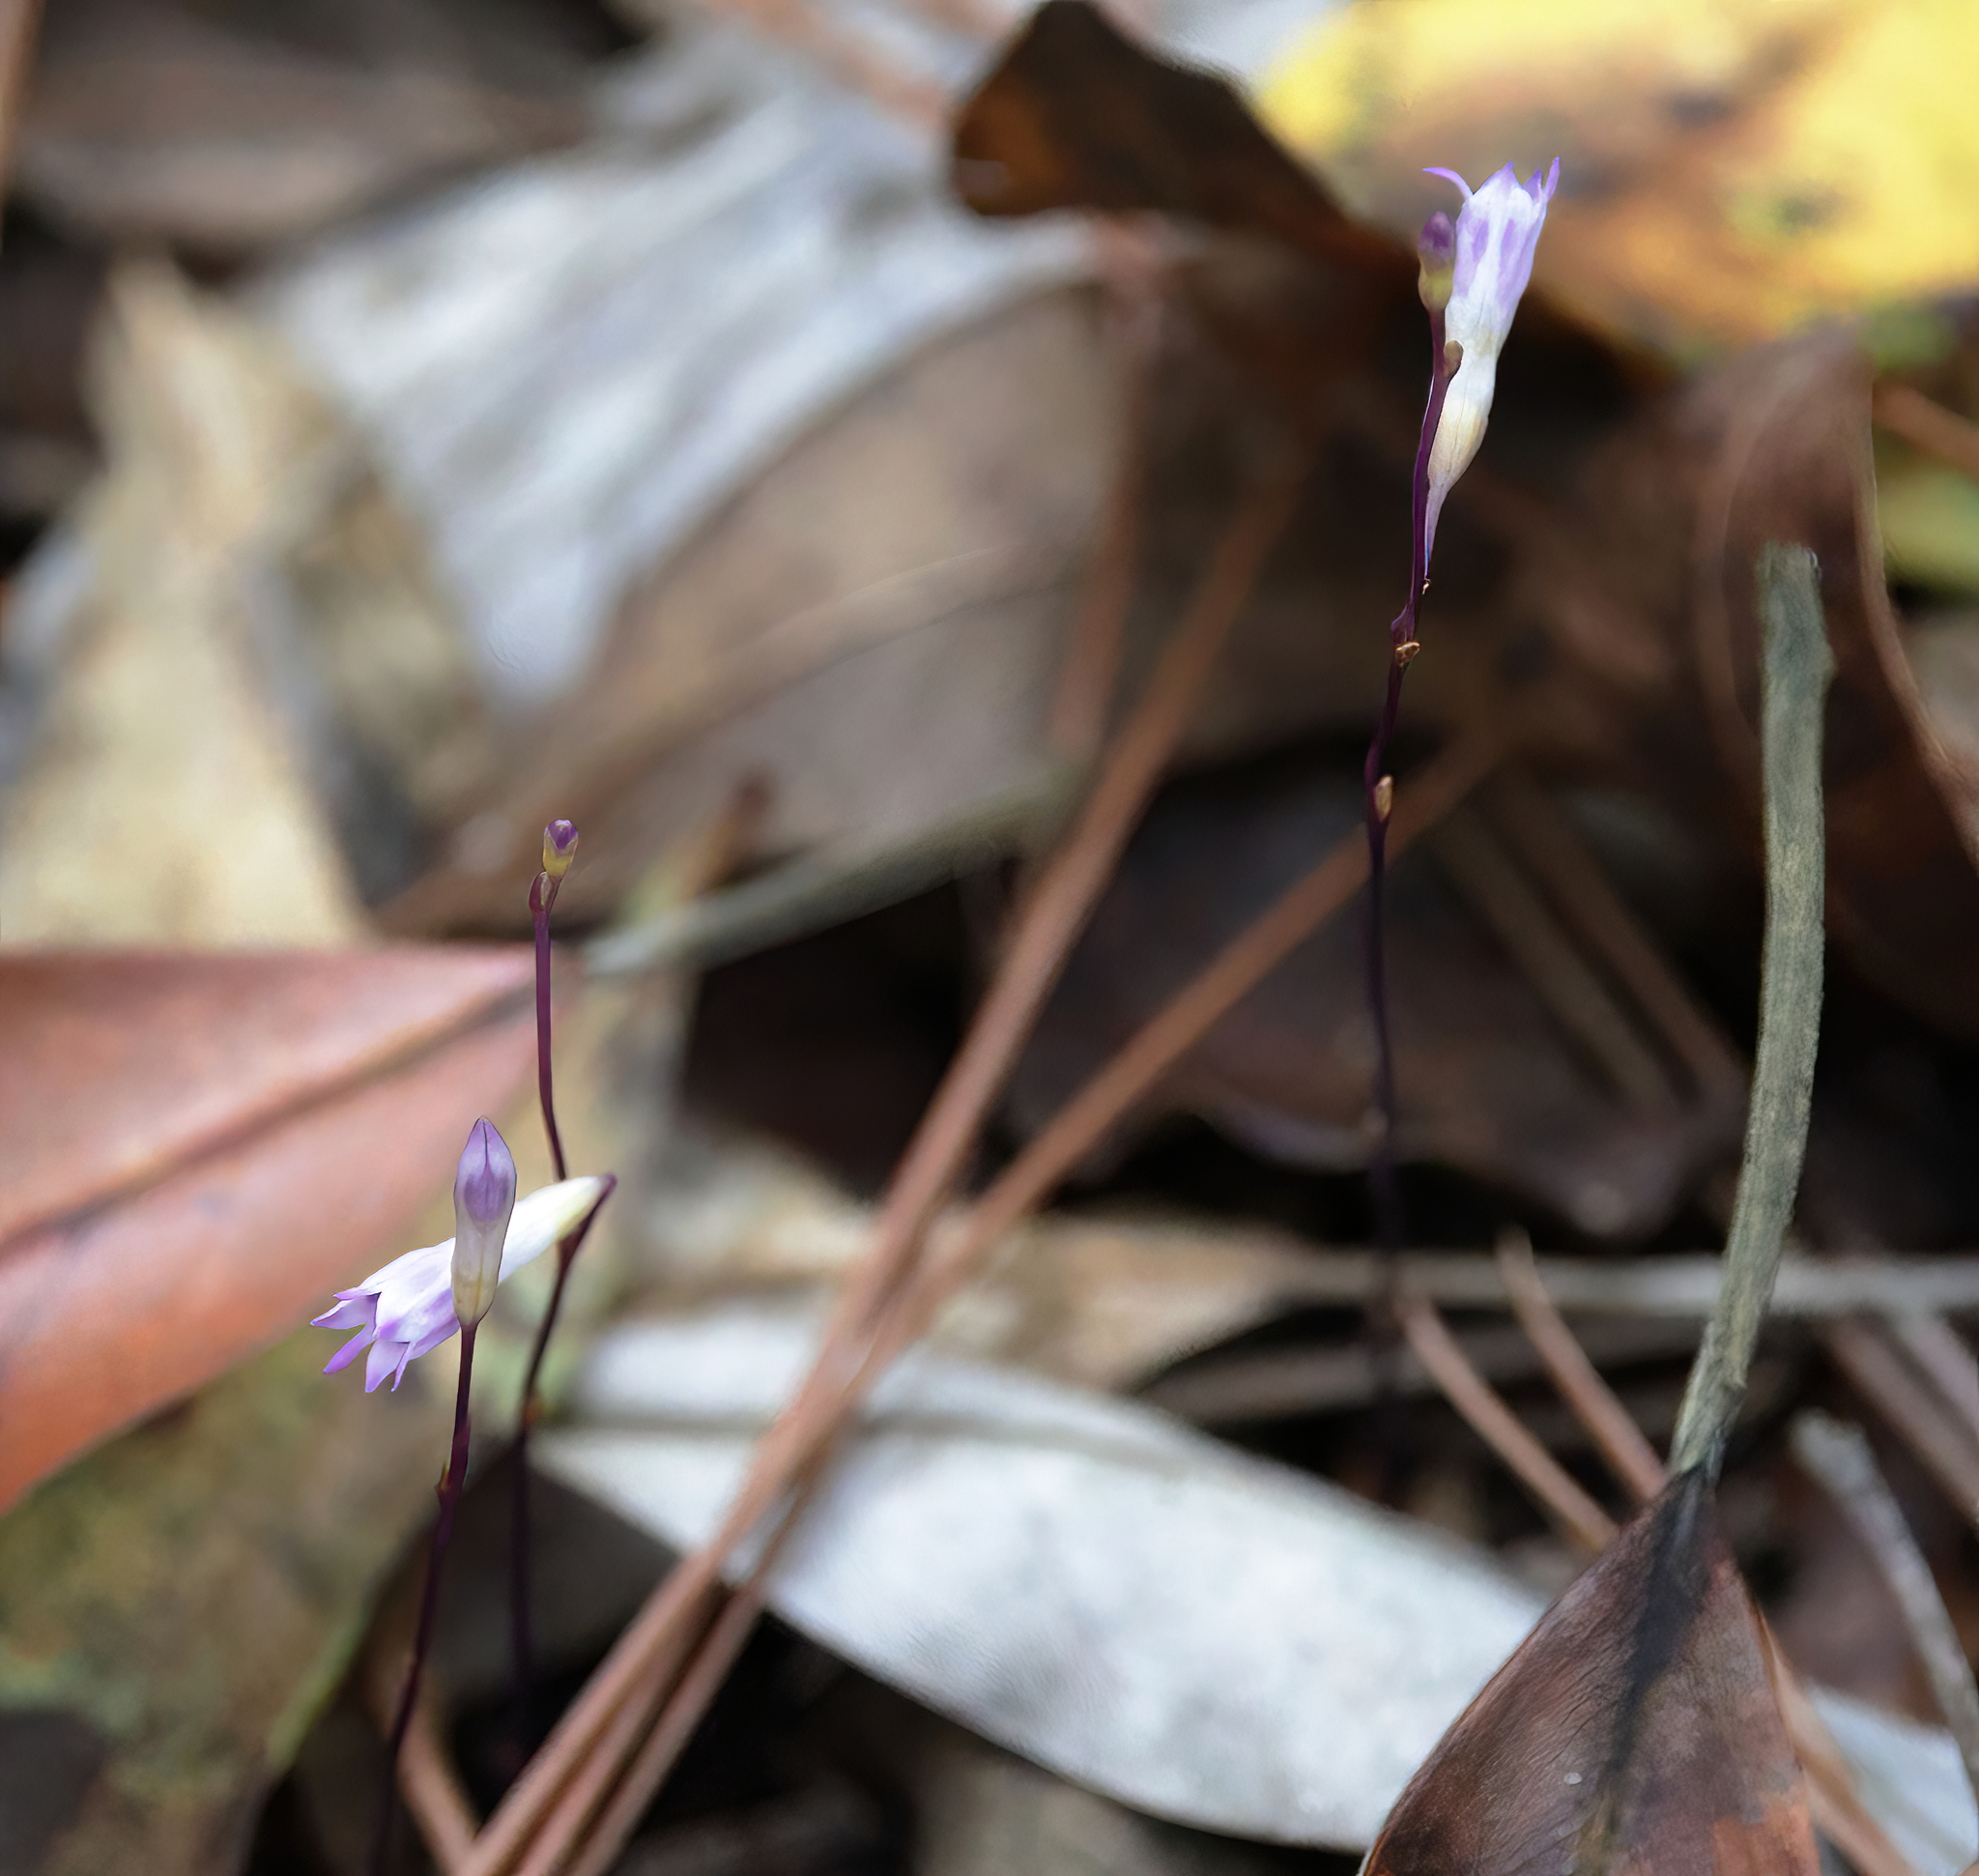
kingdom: Plantae
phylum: Tracheophyta
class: Liliopsida
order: Dioscoreales
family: Burmanniaceae
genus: Apteria
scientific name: Apteria aphylla
